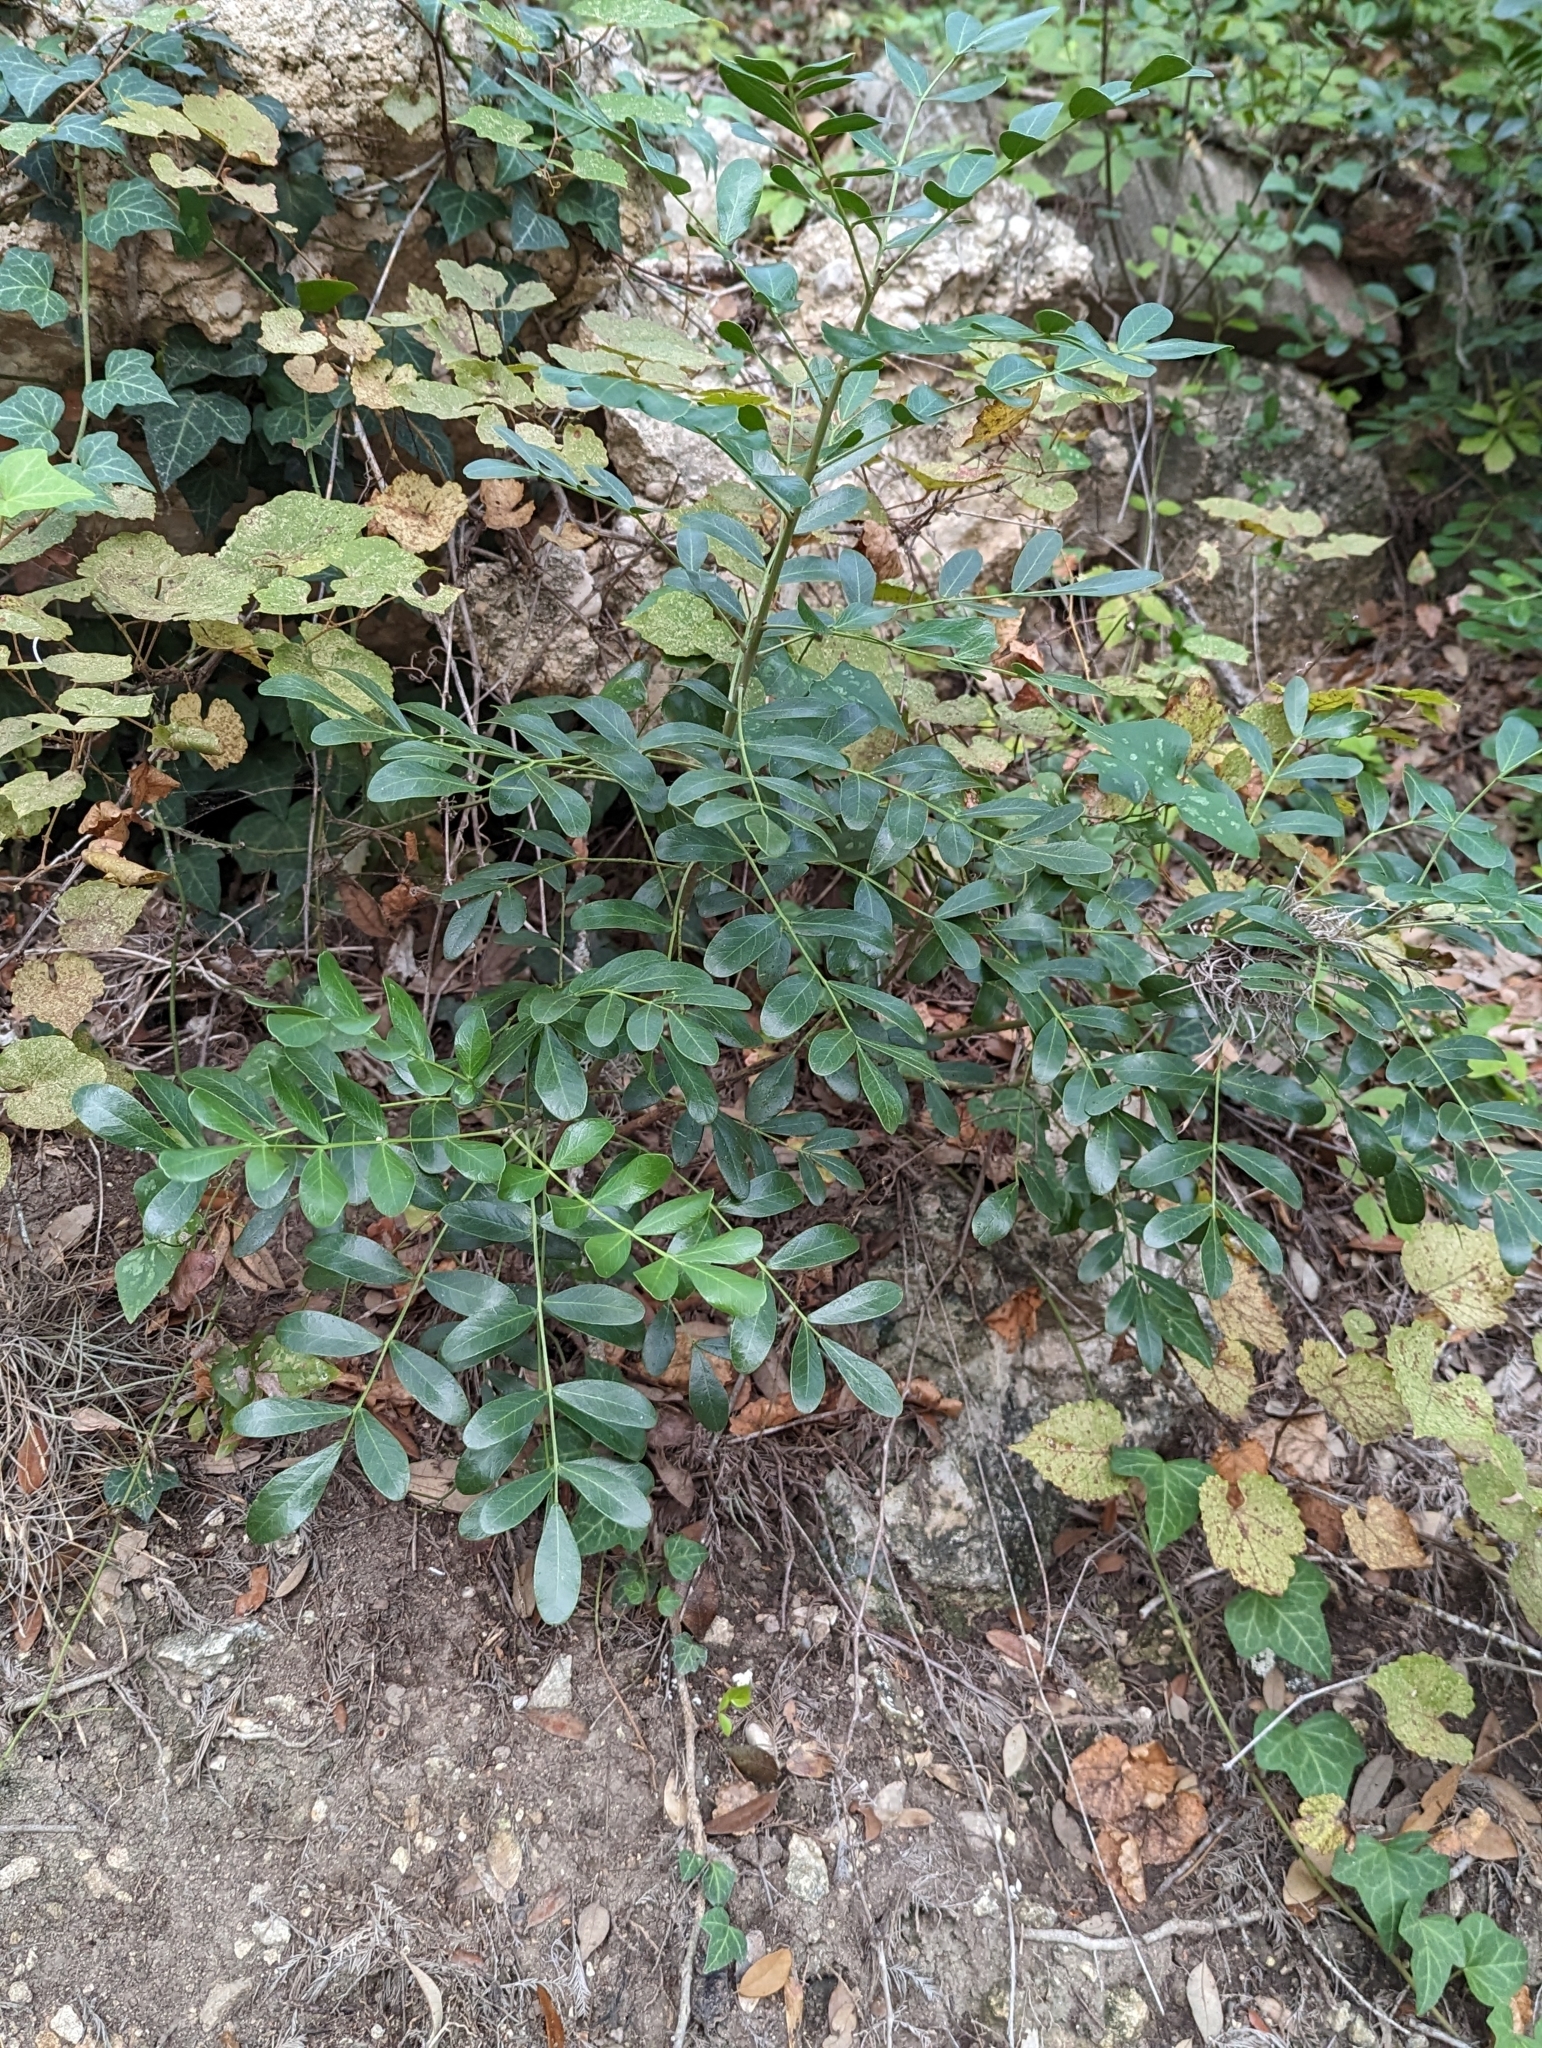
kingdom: Plantae
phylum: Tracheophyta
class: Magnoliopsida
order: Fabales
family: Fabaceae
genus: Dermatophyllum
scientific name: Dermatophyllum secundiflorum
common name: Texas-mountain-laurel
